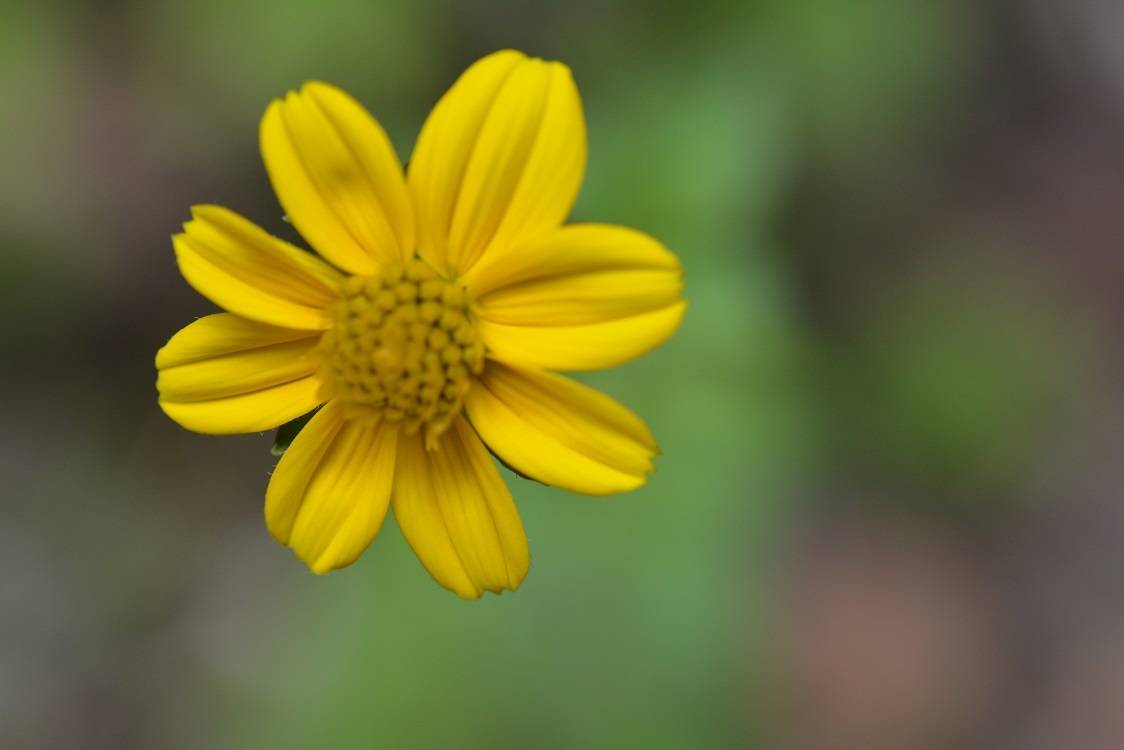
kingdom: Plantae
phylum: Tracheophyta
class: Magnoliopsida
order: Asterales
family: Asteraceae
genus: Bidens
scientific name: Bidens ostruthioides
